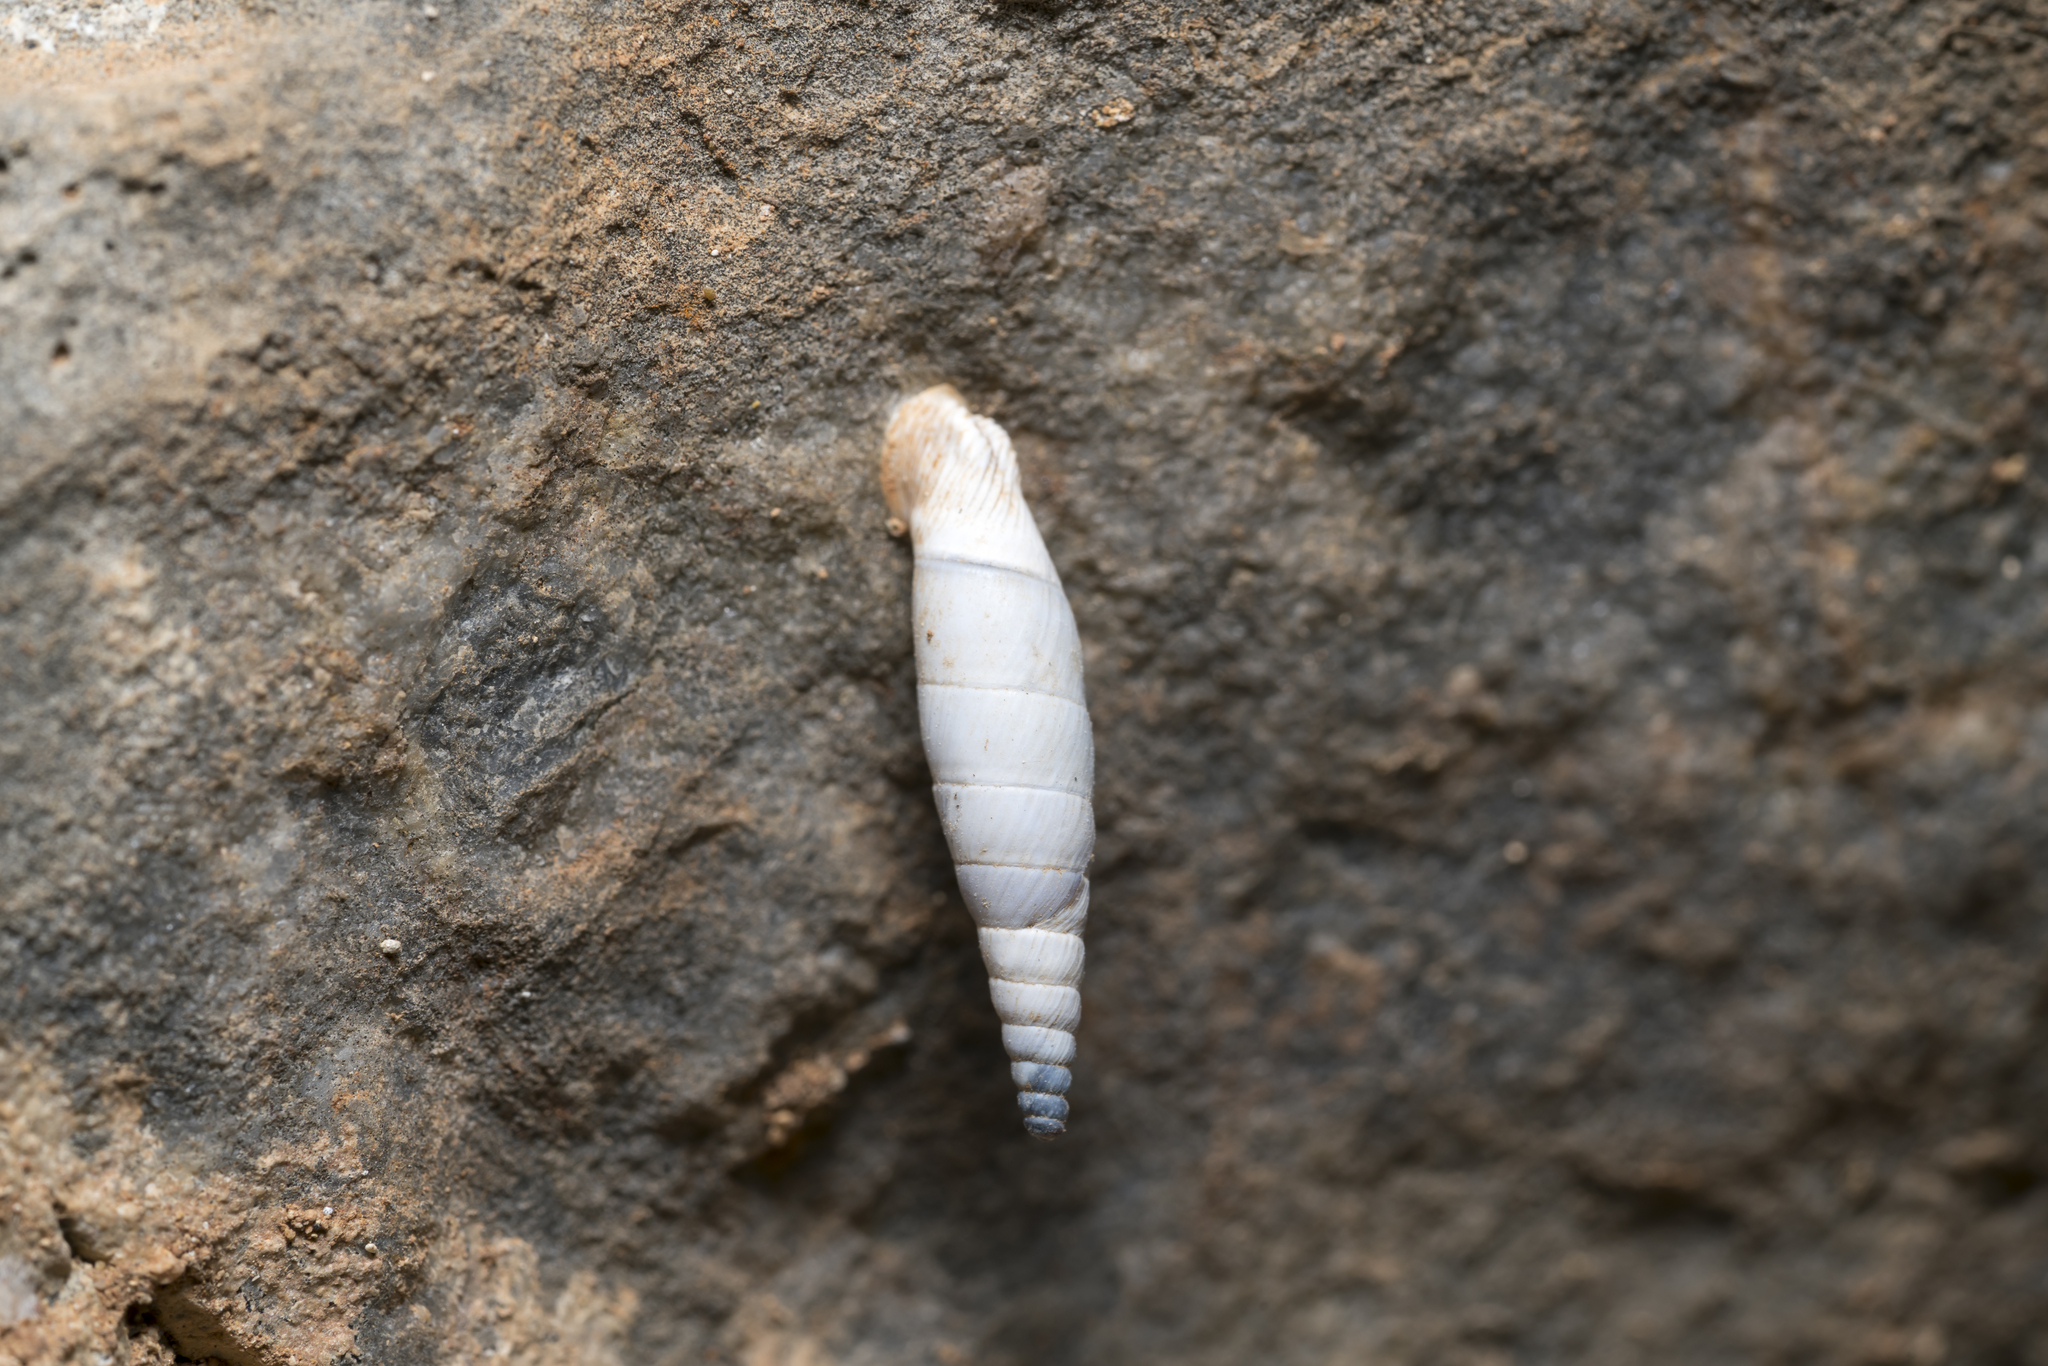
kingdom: Animalia
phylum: Mollusca
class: Gastropoda
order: Stylommatophora
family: Clausiliidae
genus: Albinaria
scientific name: Albinaria brevicollis
